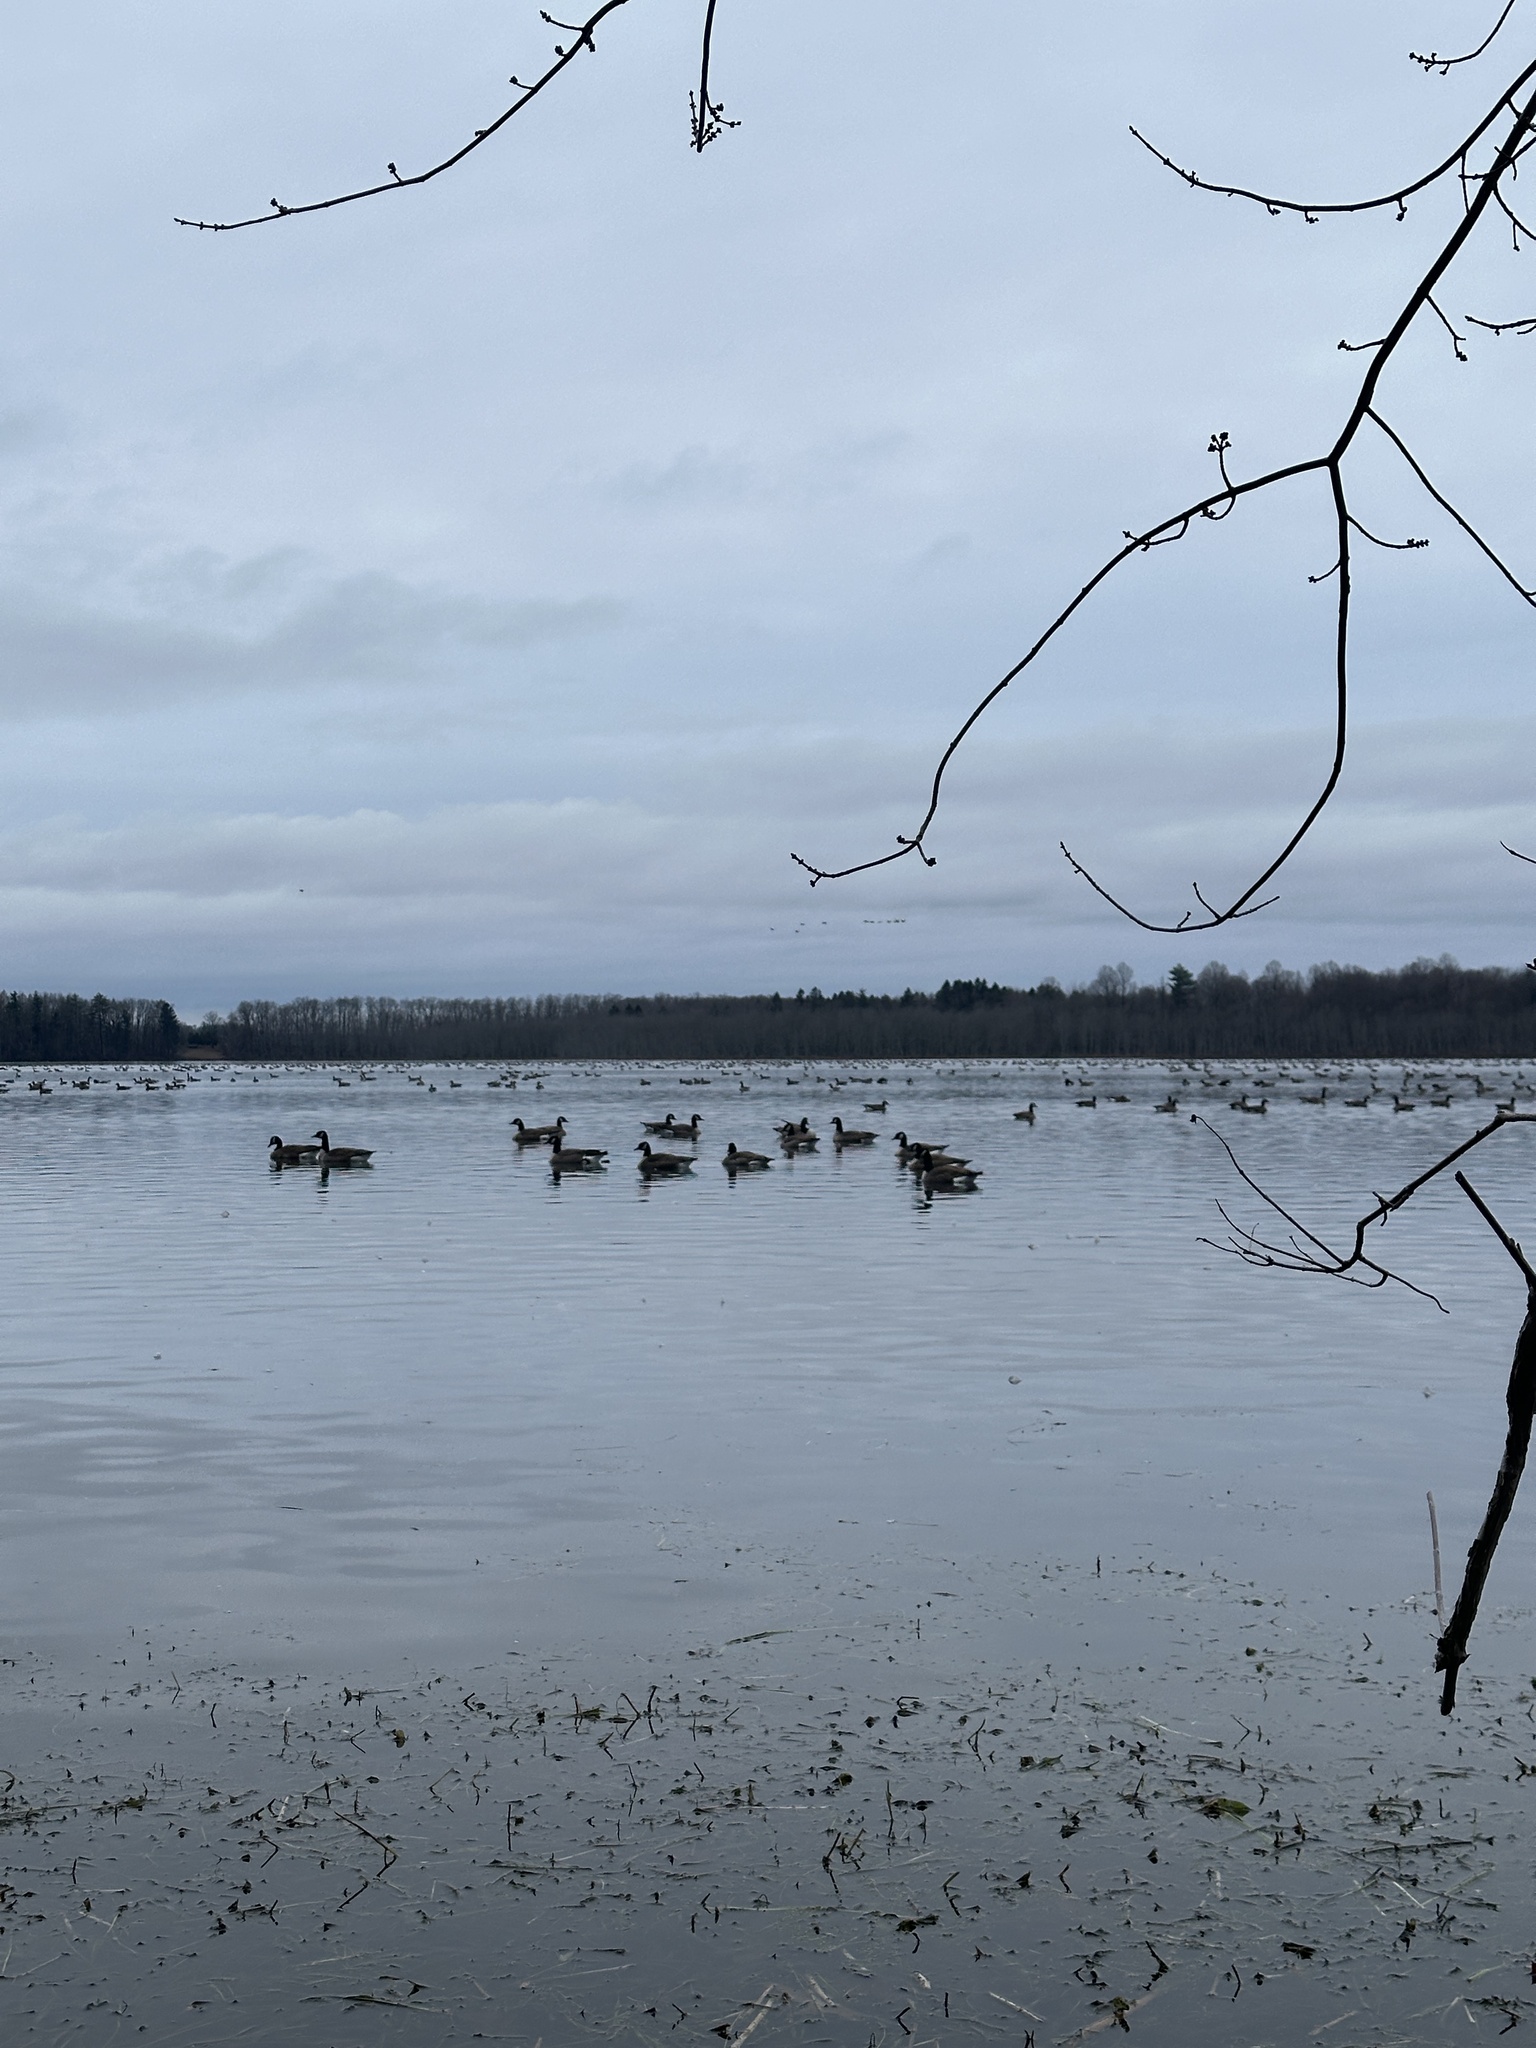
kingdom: Animalia
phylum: Chordata
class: Aves
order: Anseriformes
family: Anatidae
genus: Branta
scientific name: Branta canadensis
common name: Canada goose
